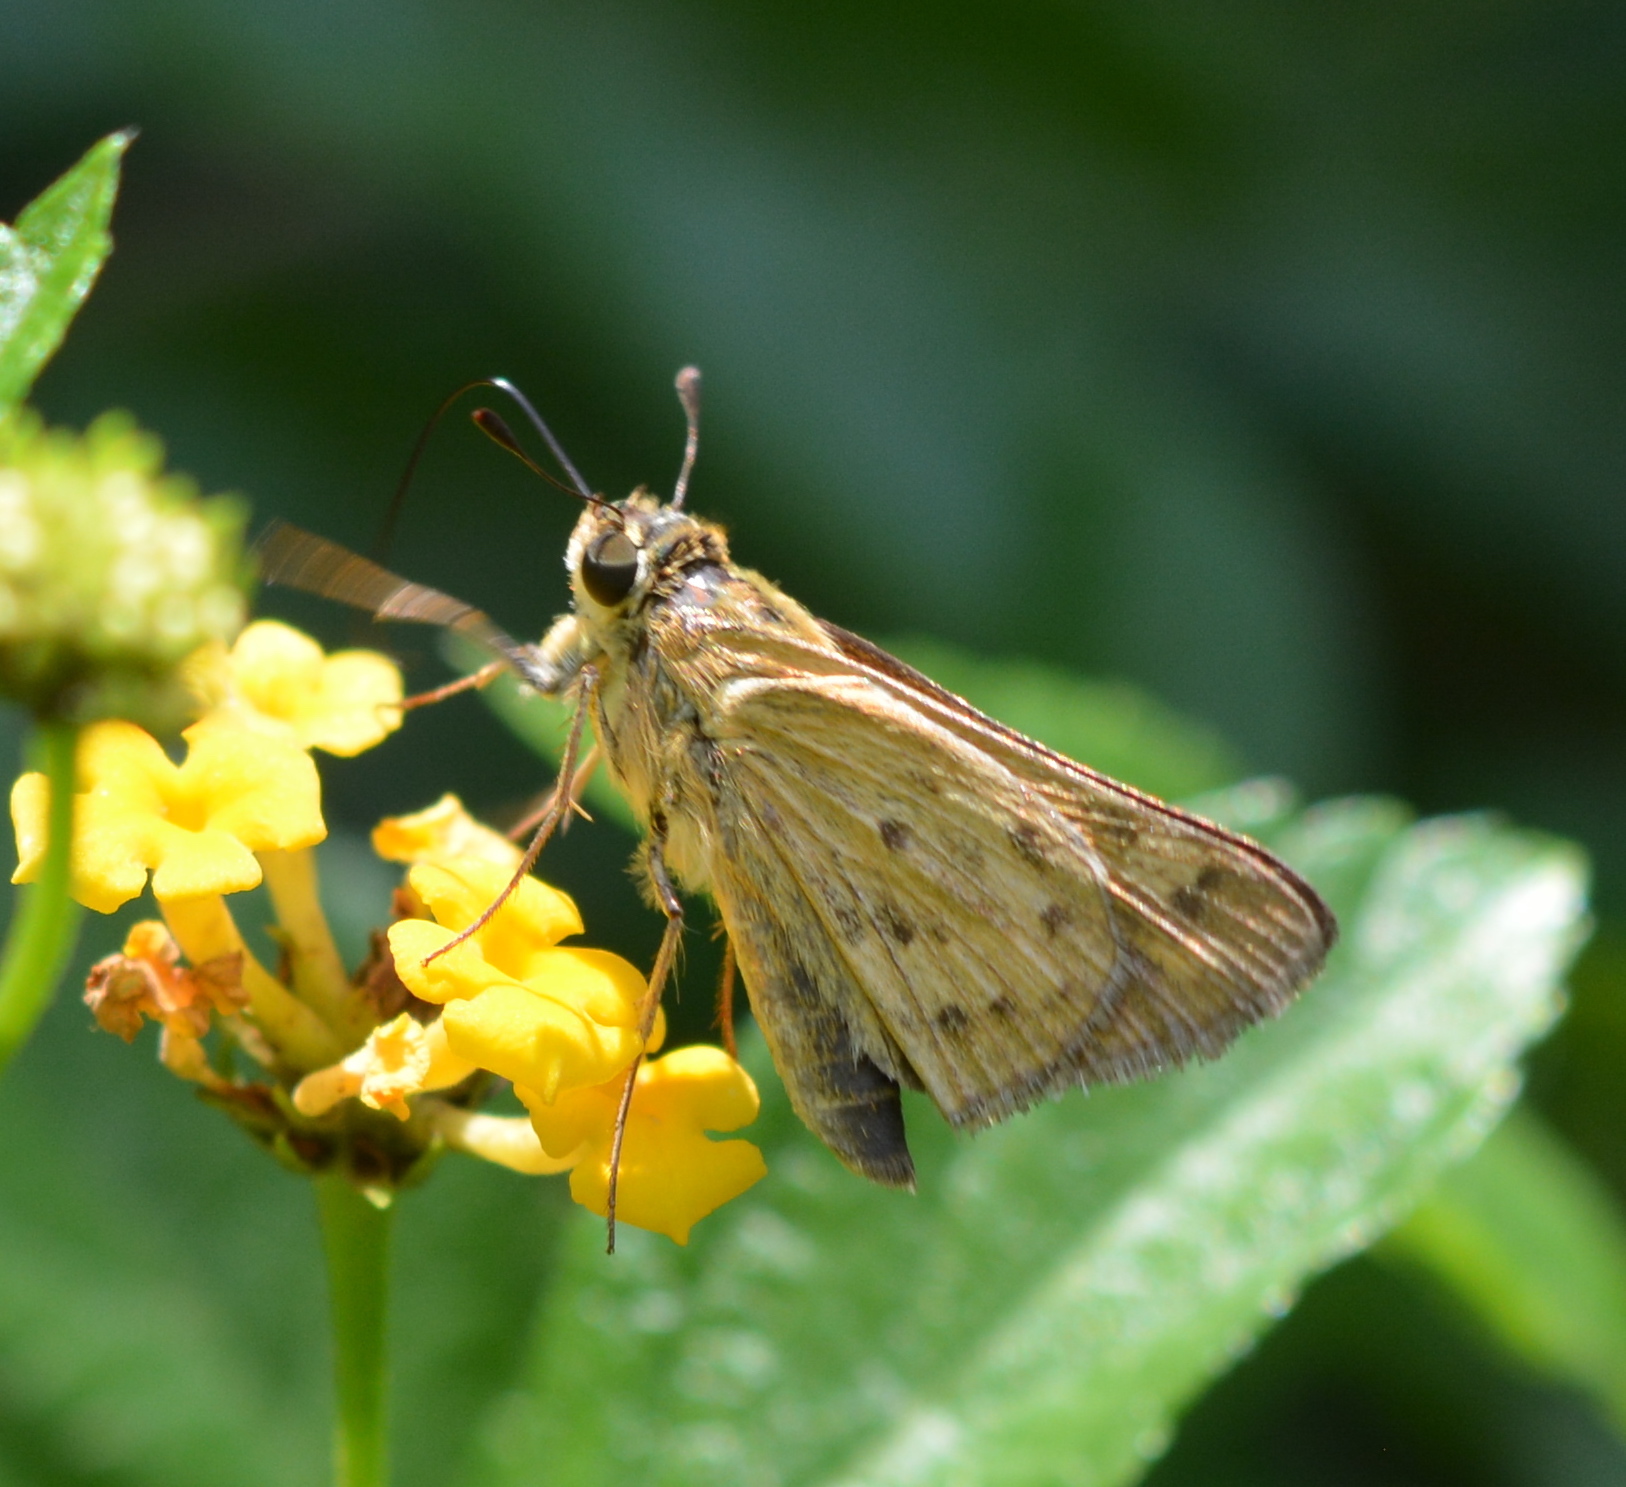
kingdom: Animalia
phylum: Arthropoda
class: Insecta
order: Lepidoptera
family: Hesperiidae
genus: Hylephila
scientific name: Hylephila phyleus
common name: Fiery skipper
